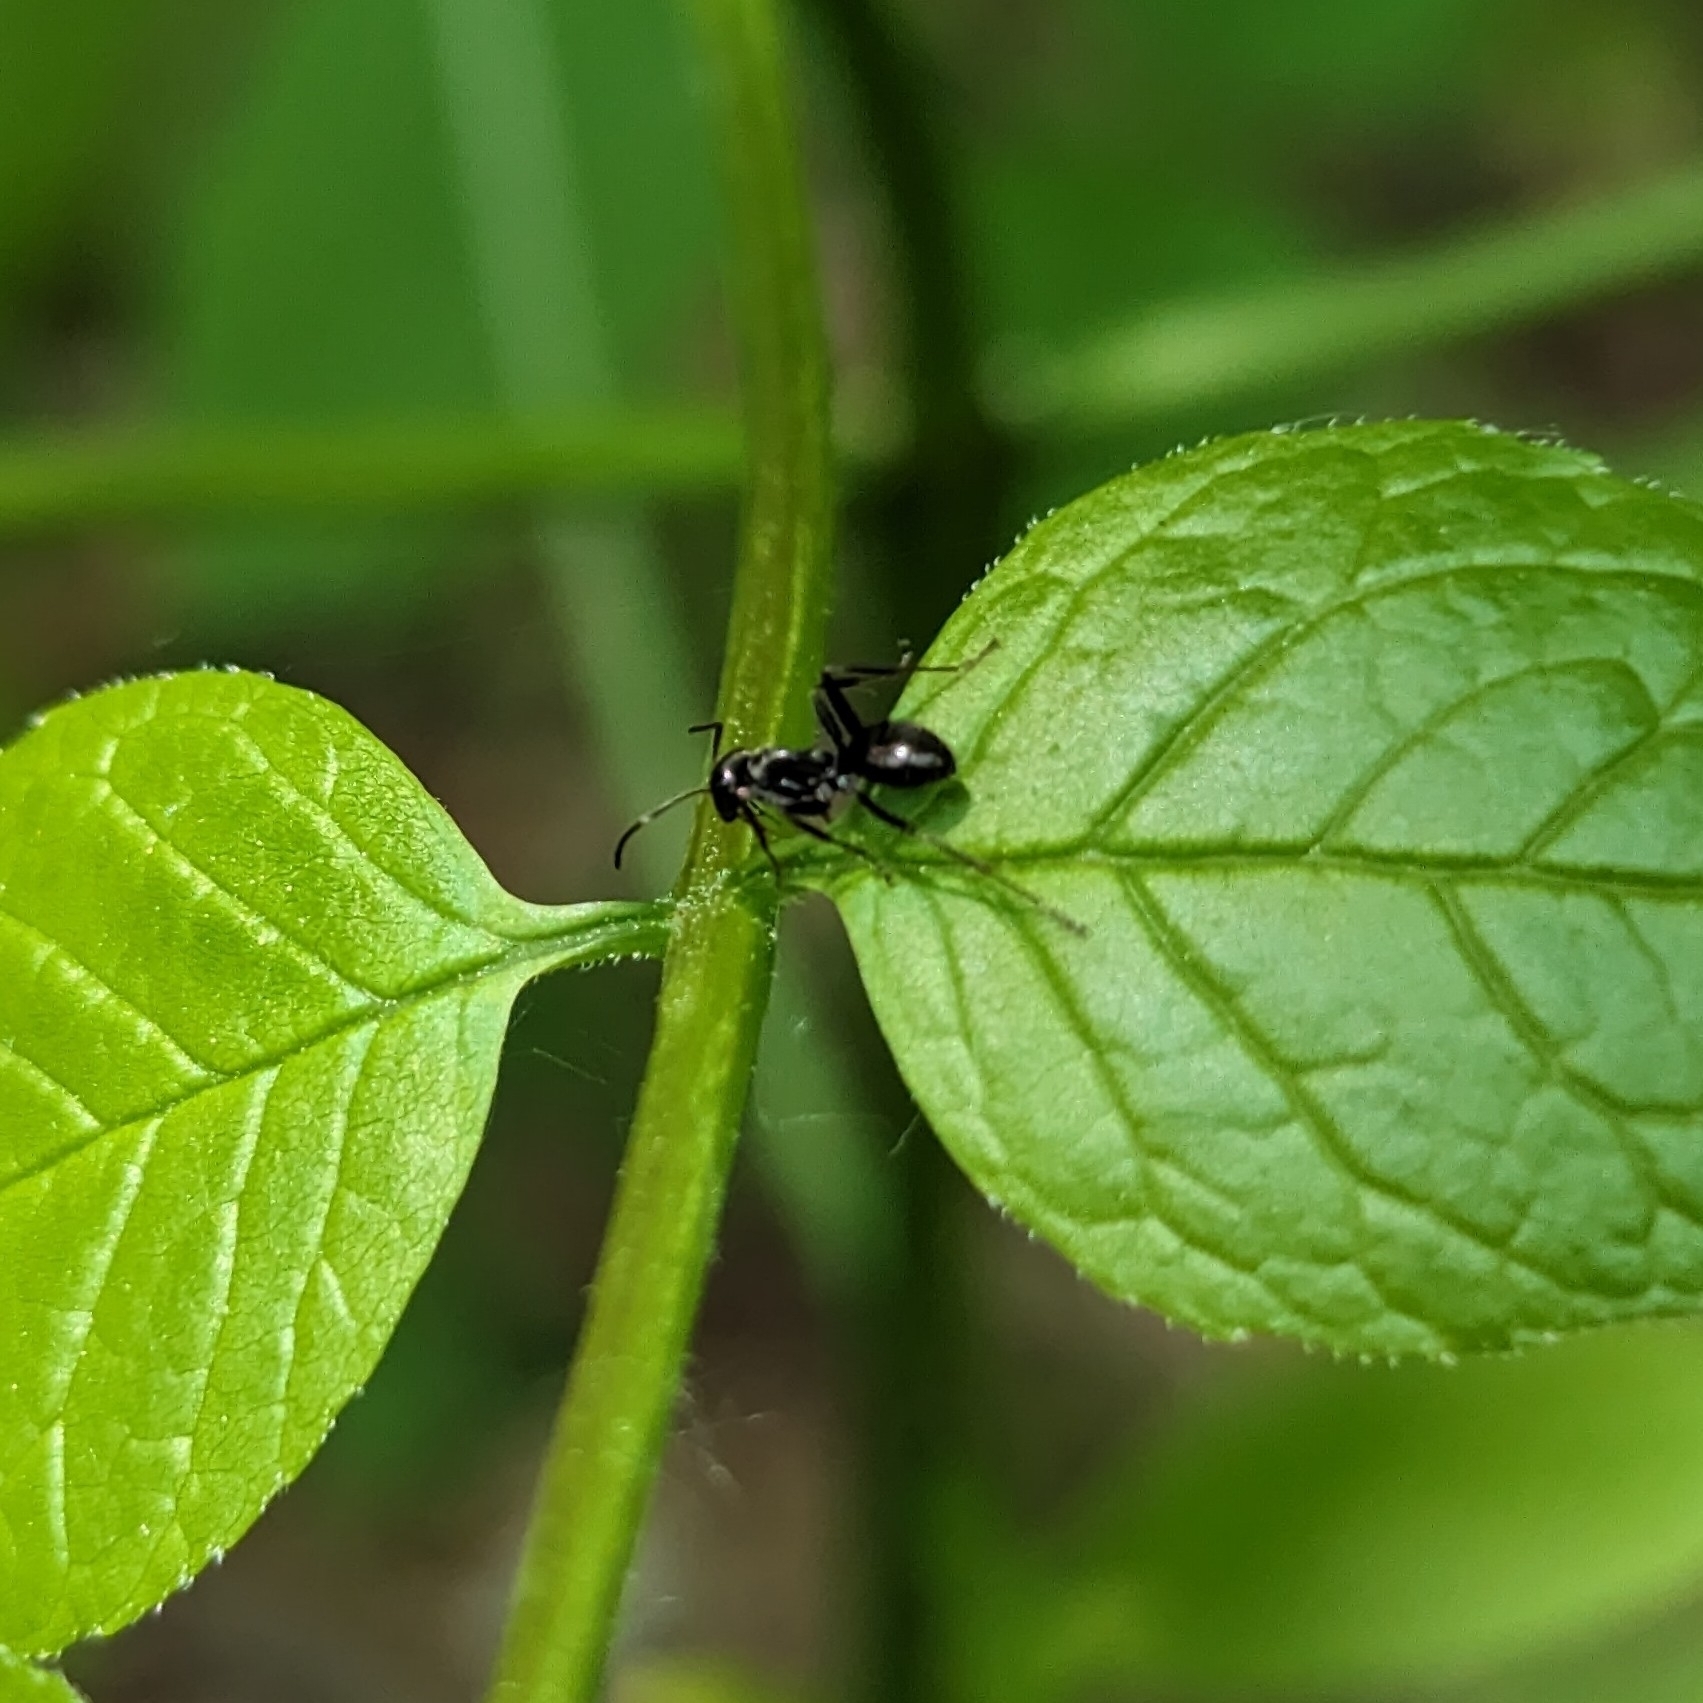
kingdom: Animalia
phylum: Arthropoda
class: Insecta
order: Hymenoptera
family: Formicidae
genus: Formica
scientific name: Formica
